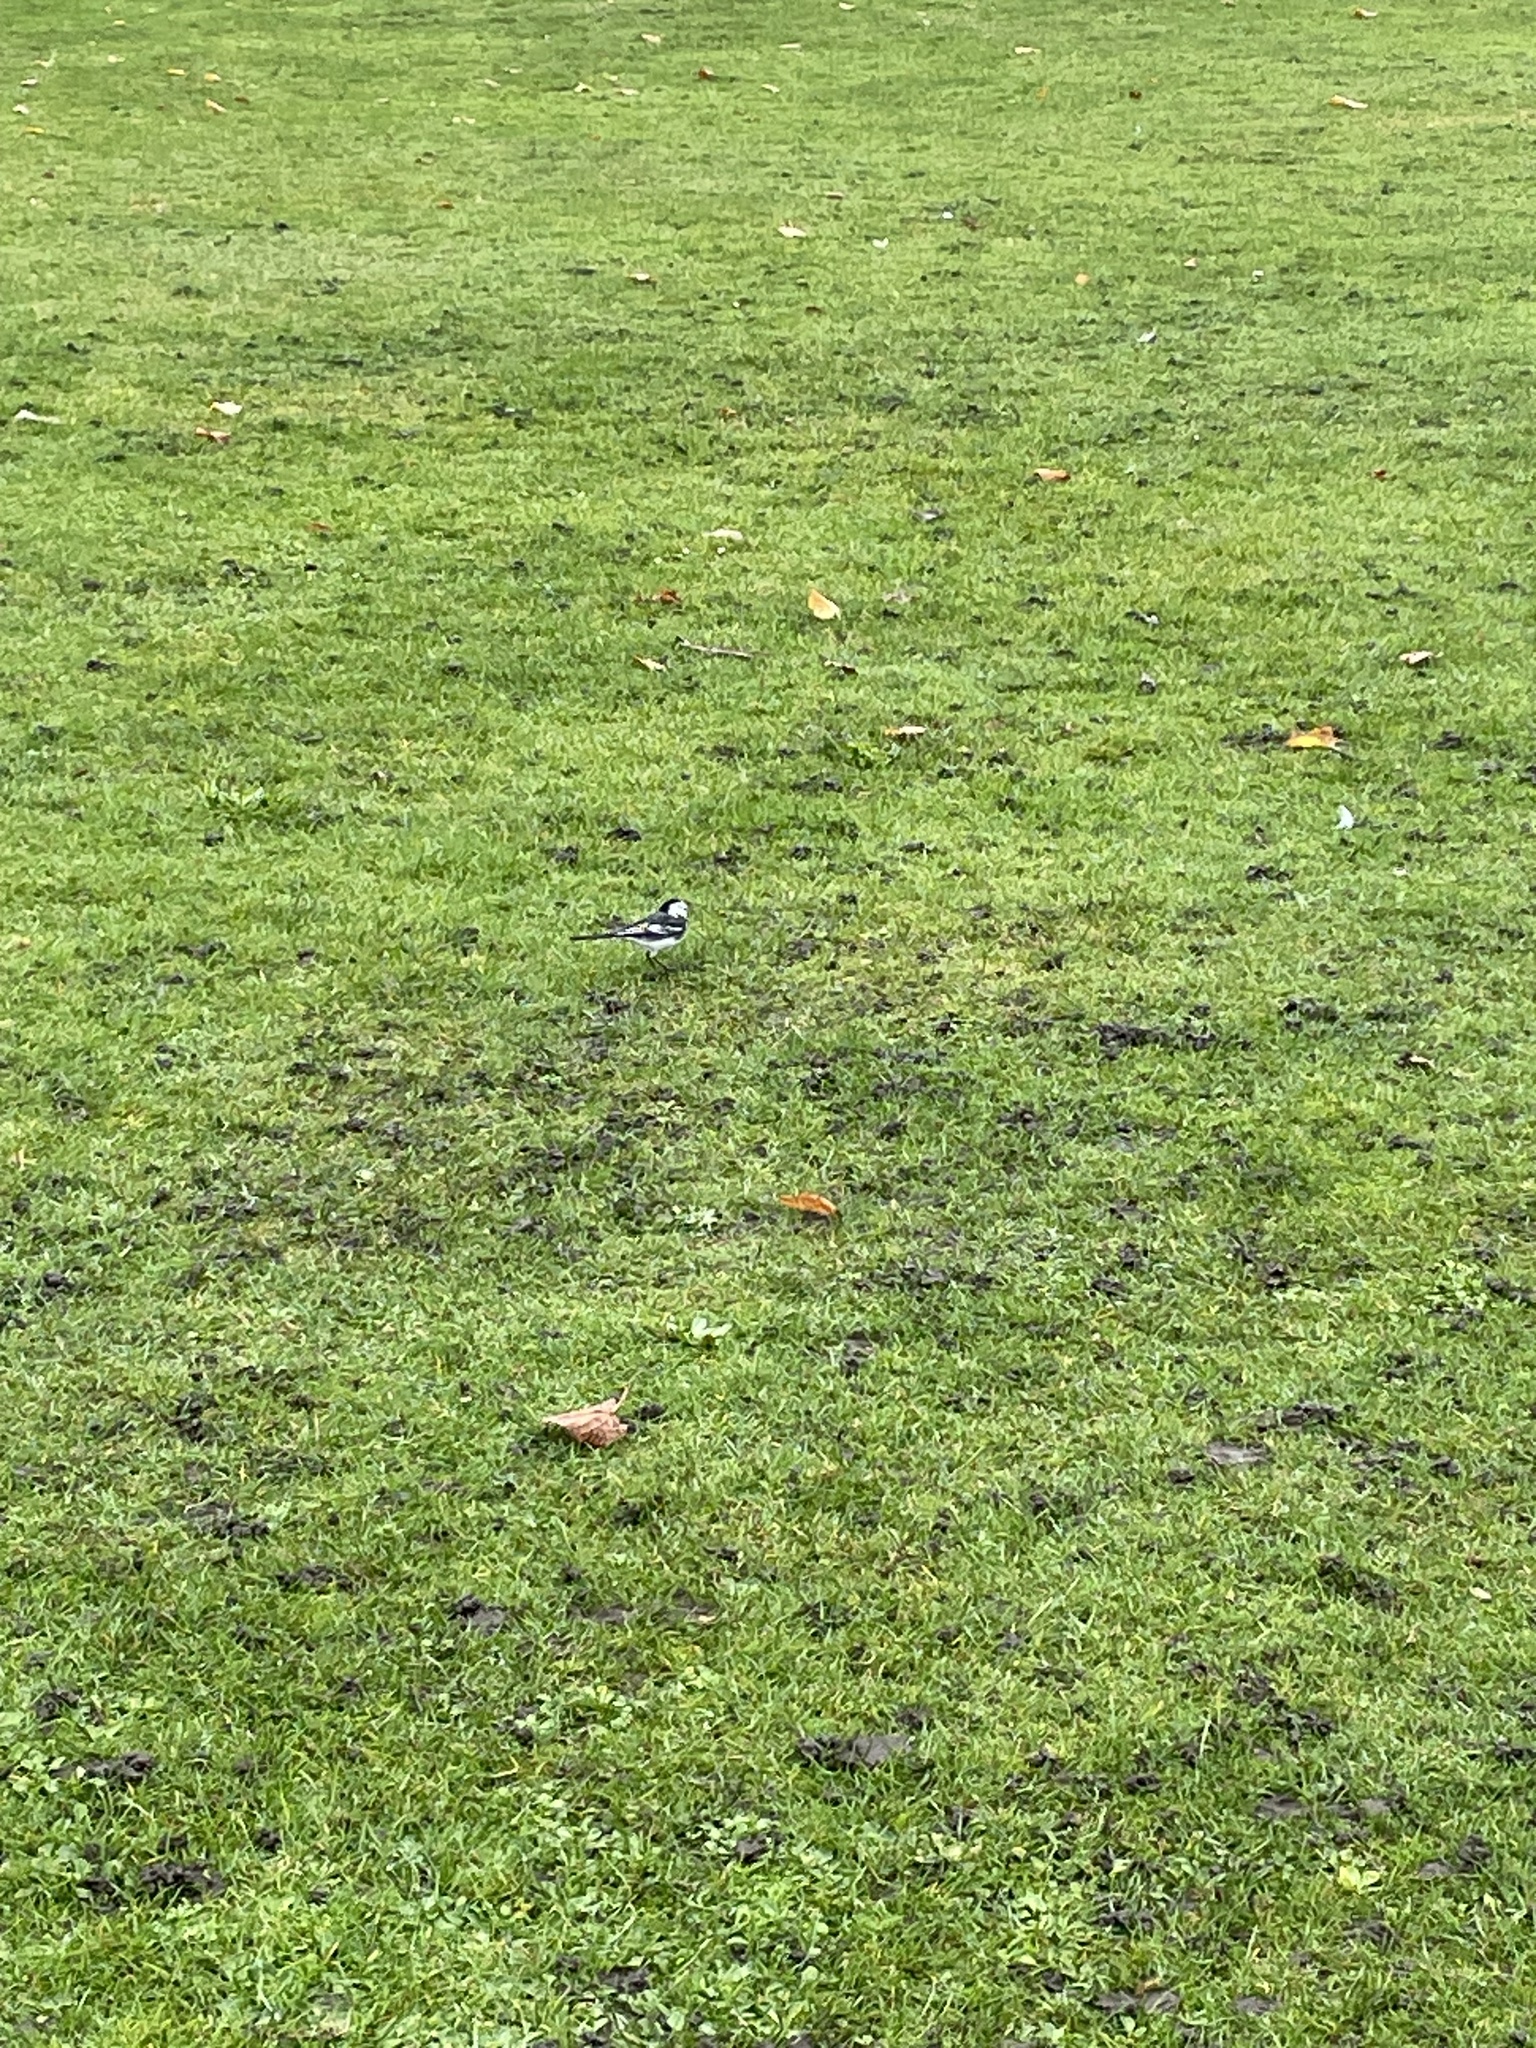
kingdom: Animalia
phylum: Chordata
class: Aves
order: Passeriformes
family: Motacillidae
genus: Motacilla
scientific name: Motacilla alba
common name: White wagtail
